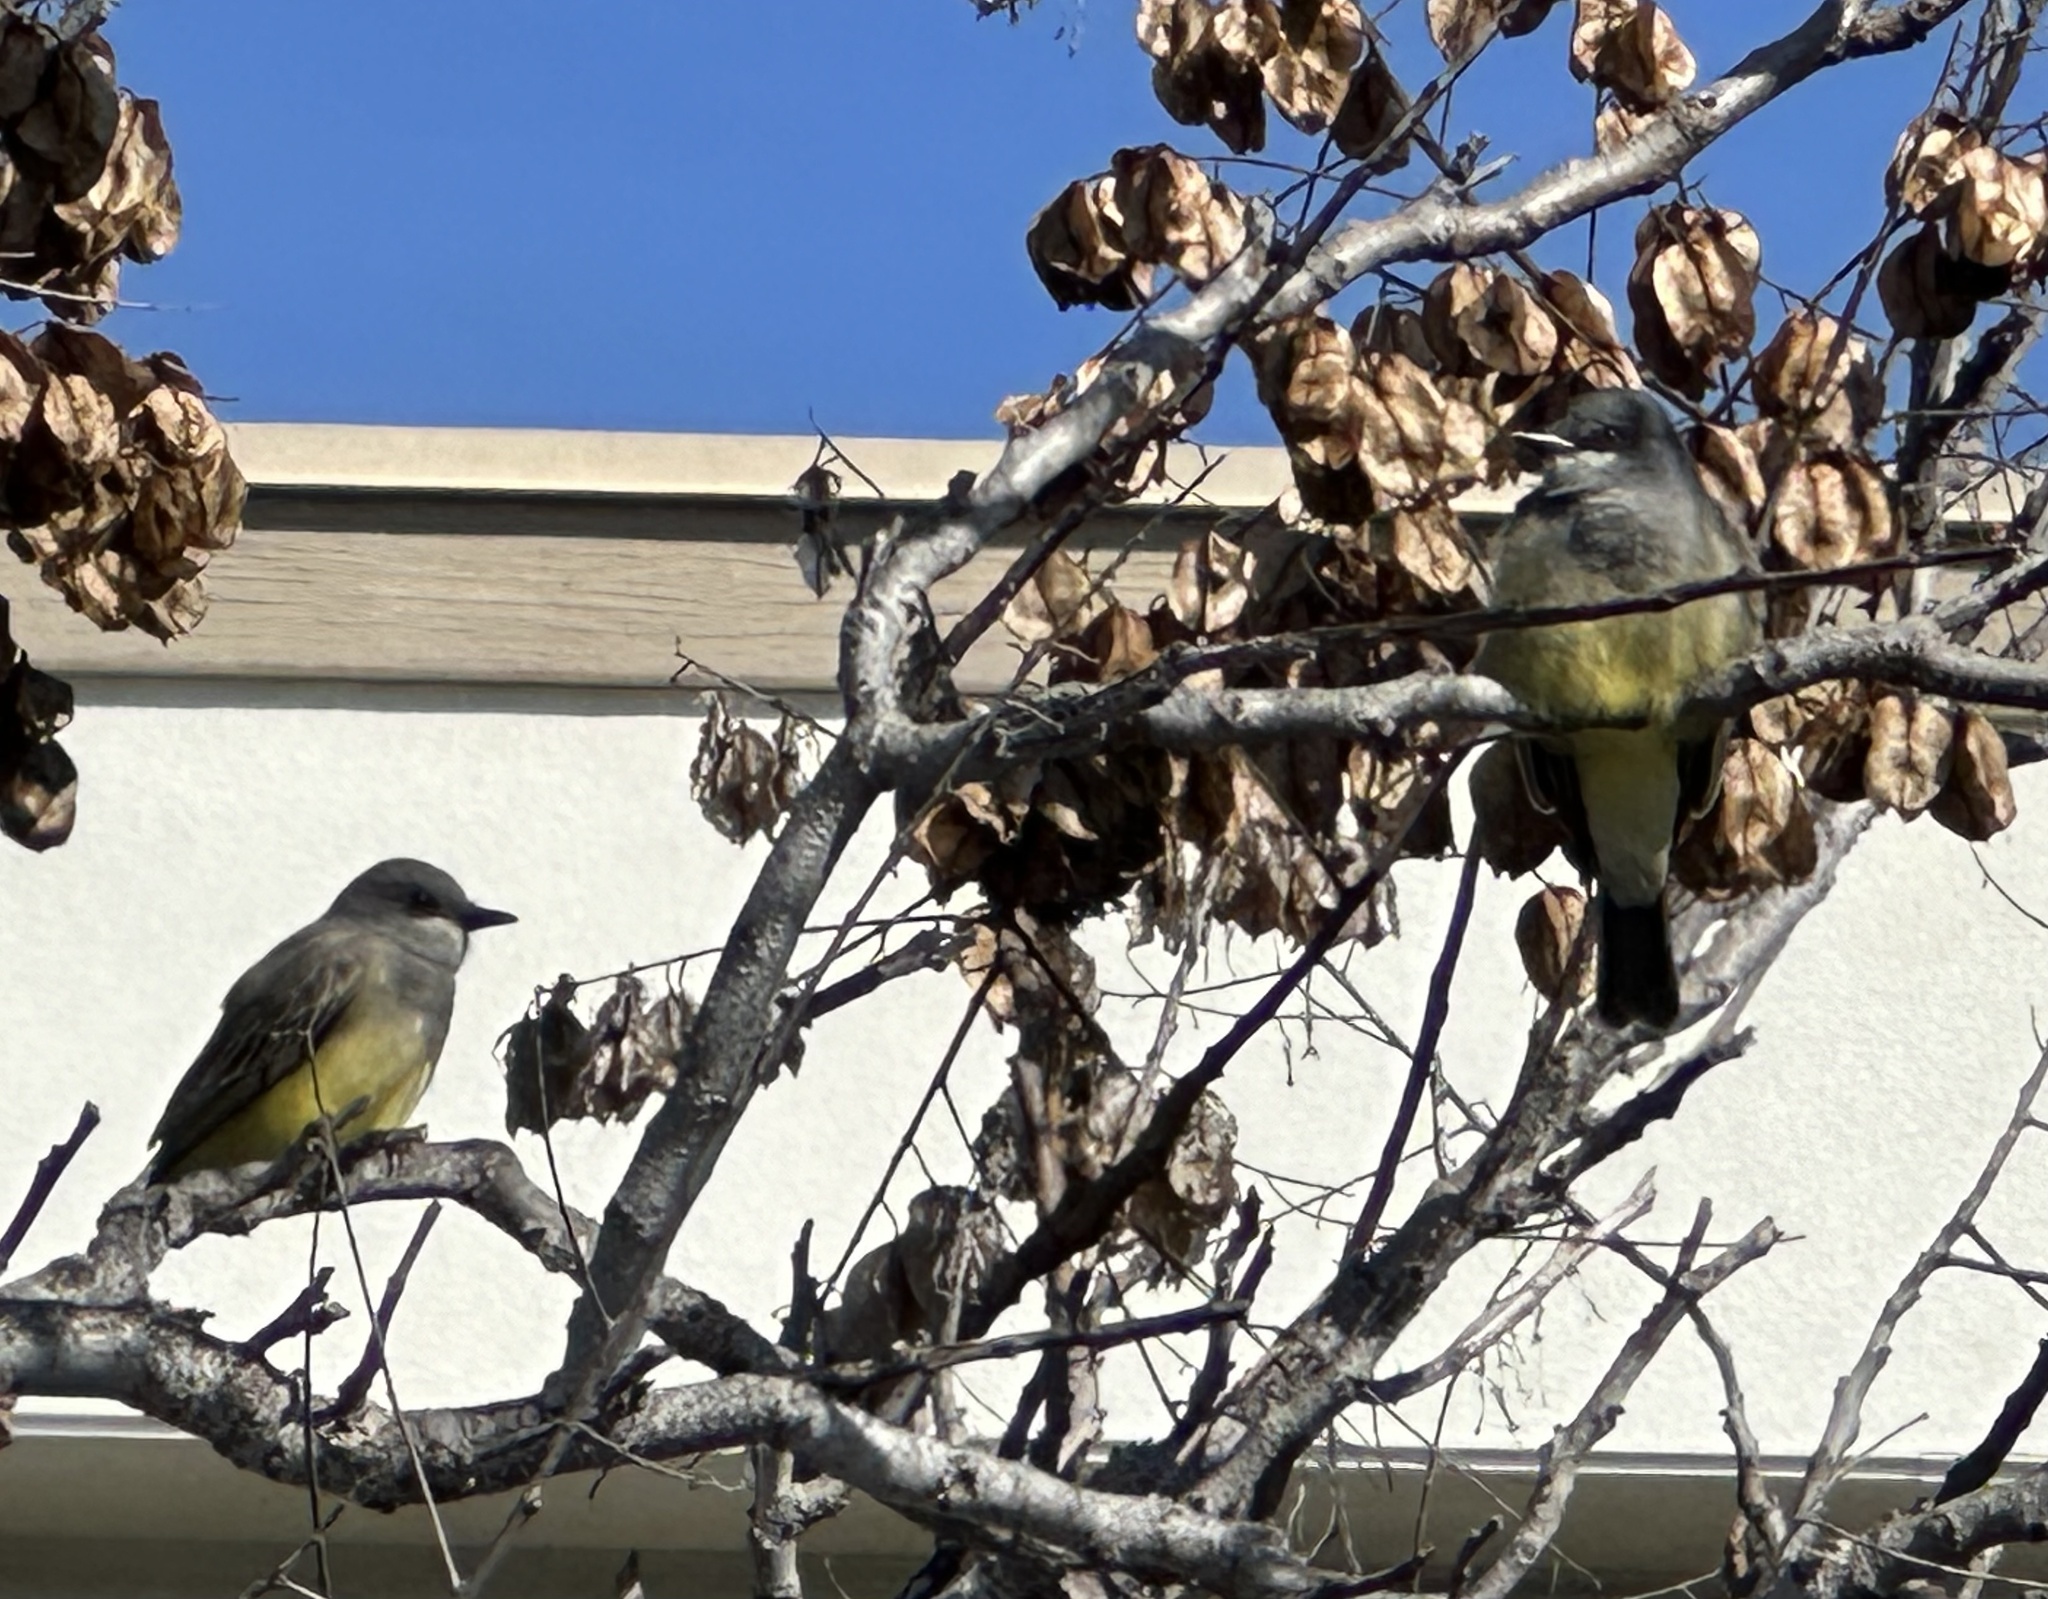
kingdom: Animalia
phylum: Chordata
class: Aves
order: Passeriformes
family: Tyrannidae
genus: Tyrannus
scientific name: Tyrannus vociferans
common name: Cassin's kingbird
